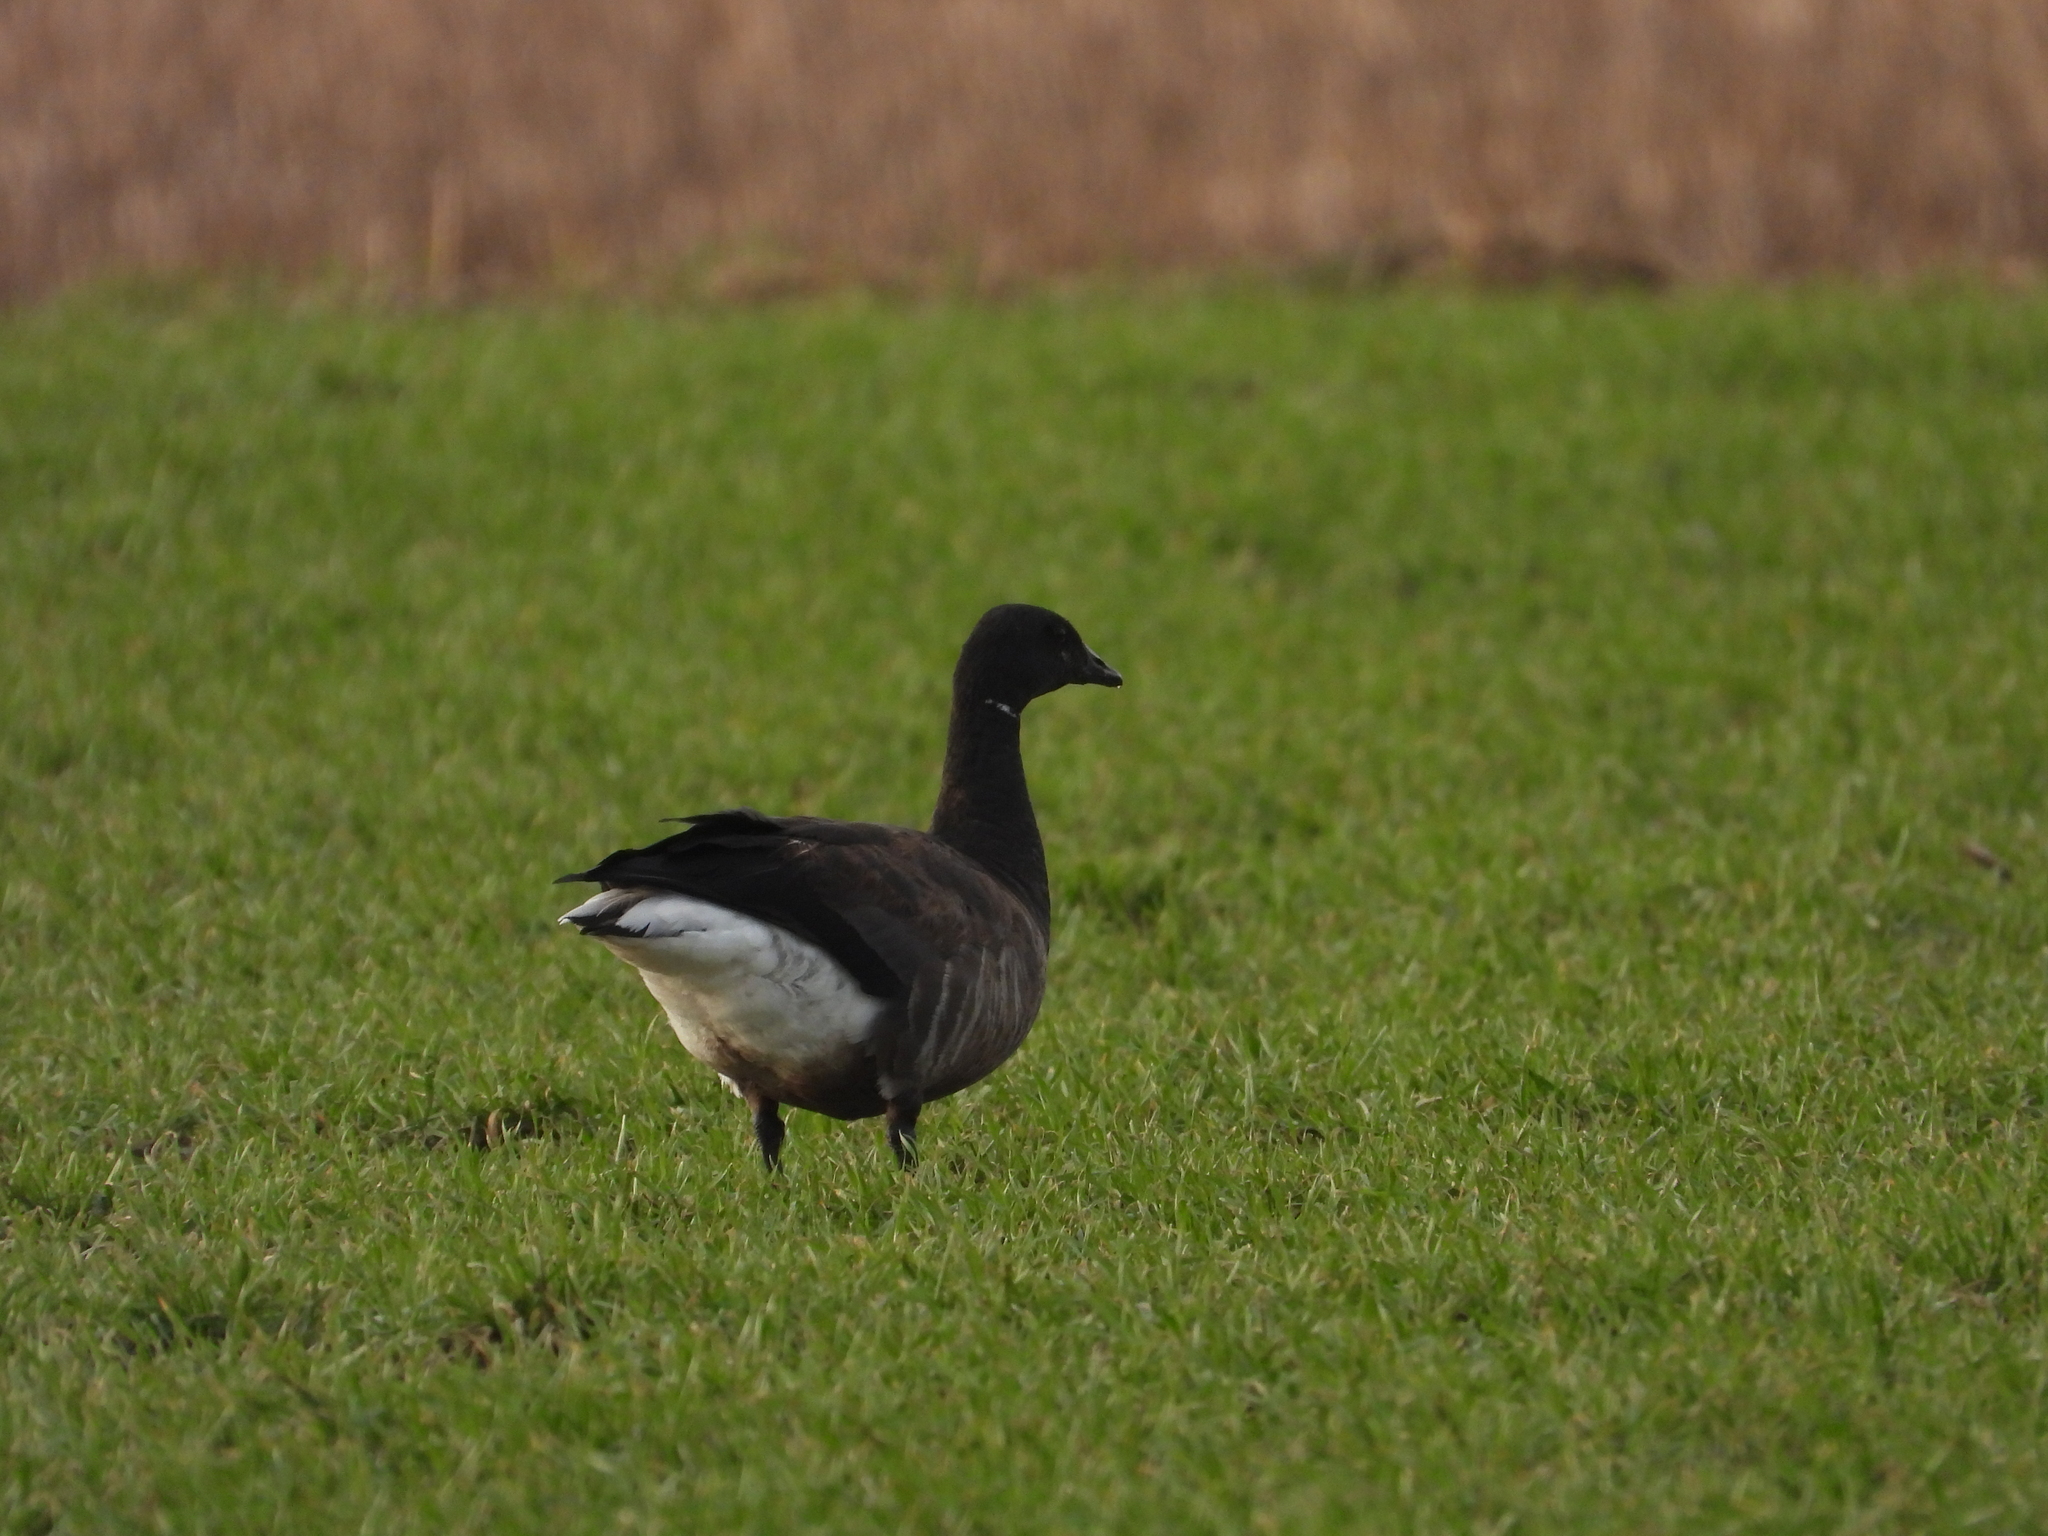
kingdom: Animalia
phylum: Chordata
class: Aves
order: Anseriformes
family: Anatidae
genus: Branta
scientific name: Branta bernicla
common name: Brant goose
